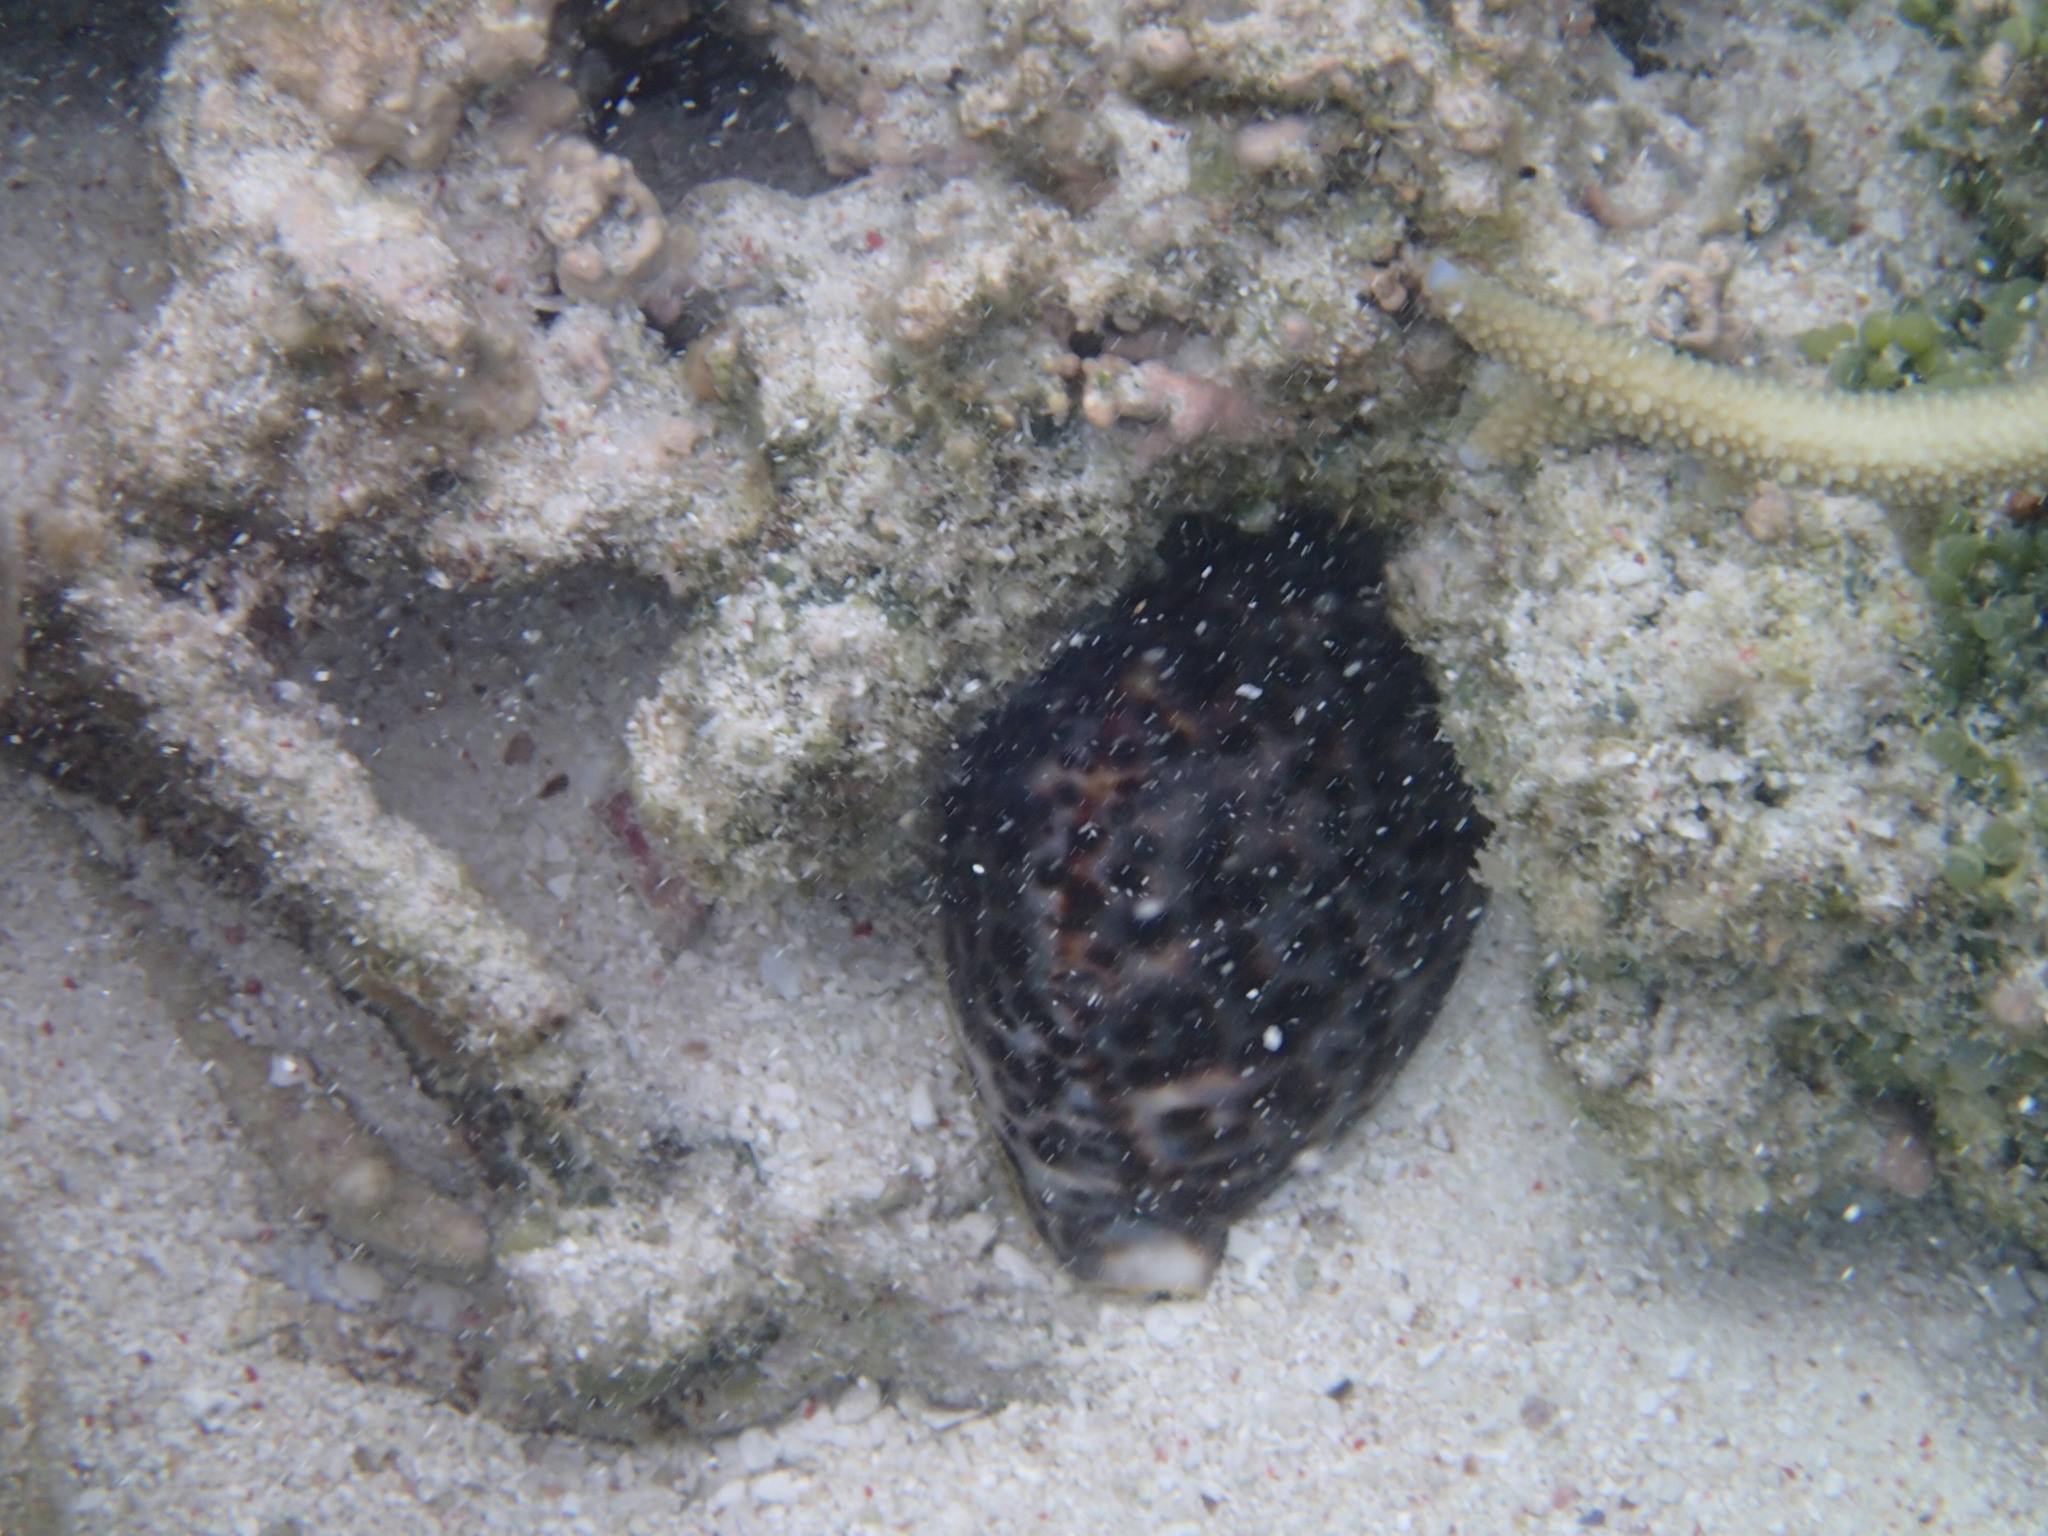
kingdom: Animalia
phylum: Mollusca
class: Gastropoda
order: Littorinimorpha
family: Cypraeidae
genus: Cypraea
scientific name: Cypraea tigris
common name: Tiger cowrie
